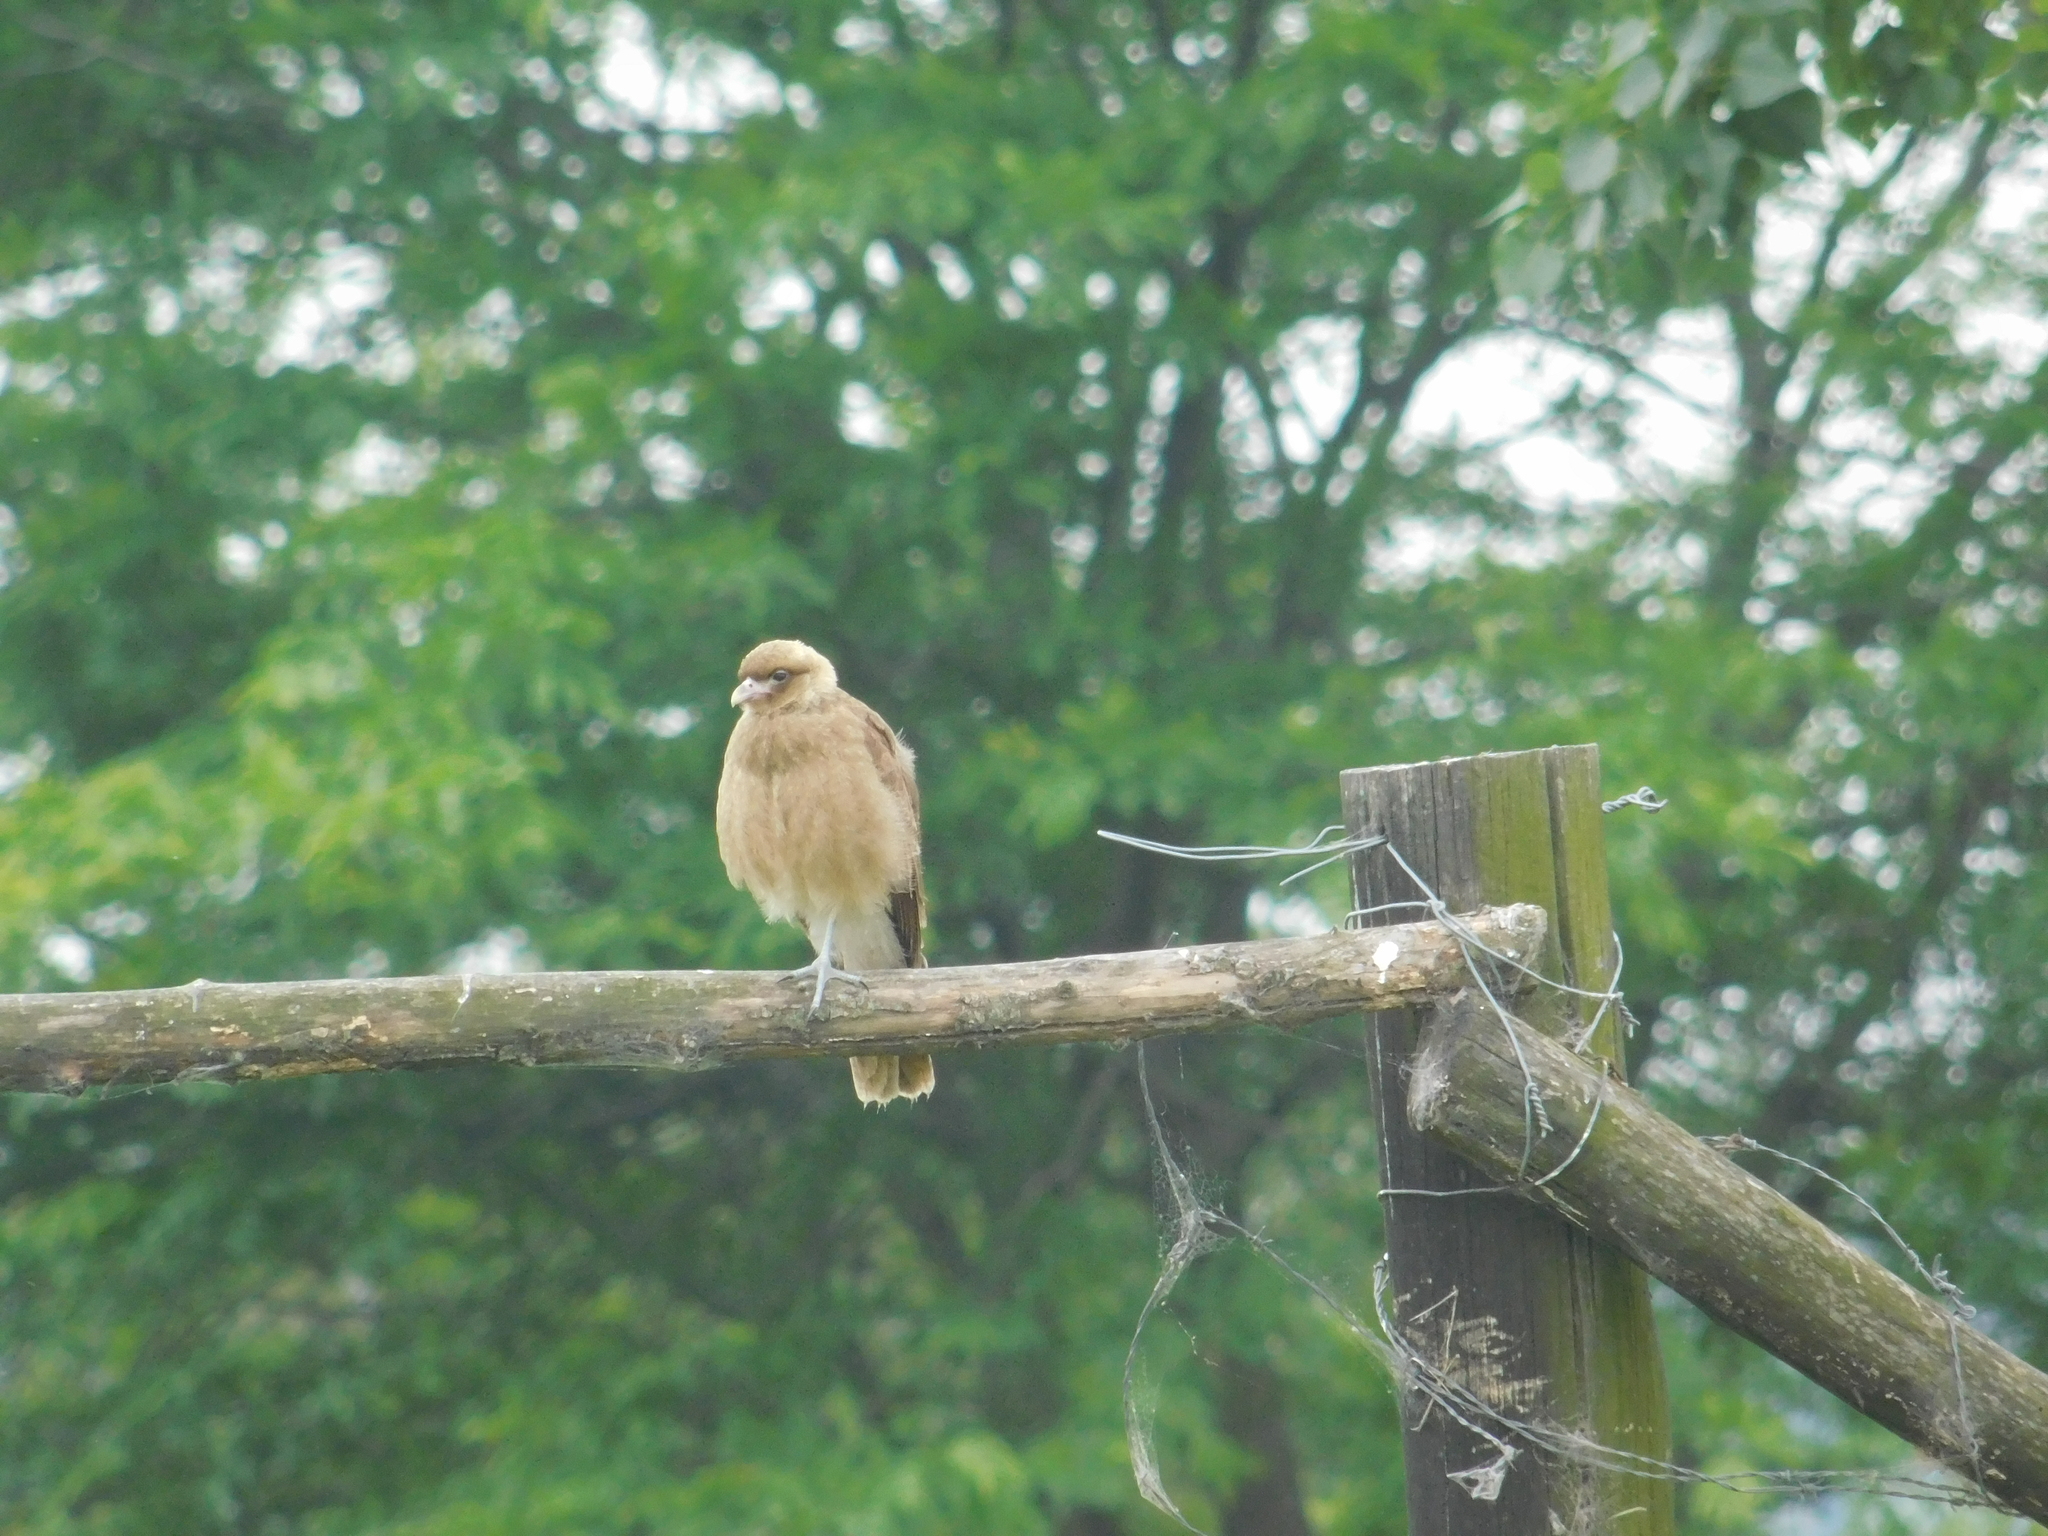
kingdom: Animalia
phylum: Chordata
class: Aves
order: Falconiformes
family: Falconidae
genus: Daptrius
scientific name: Daptrius
